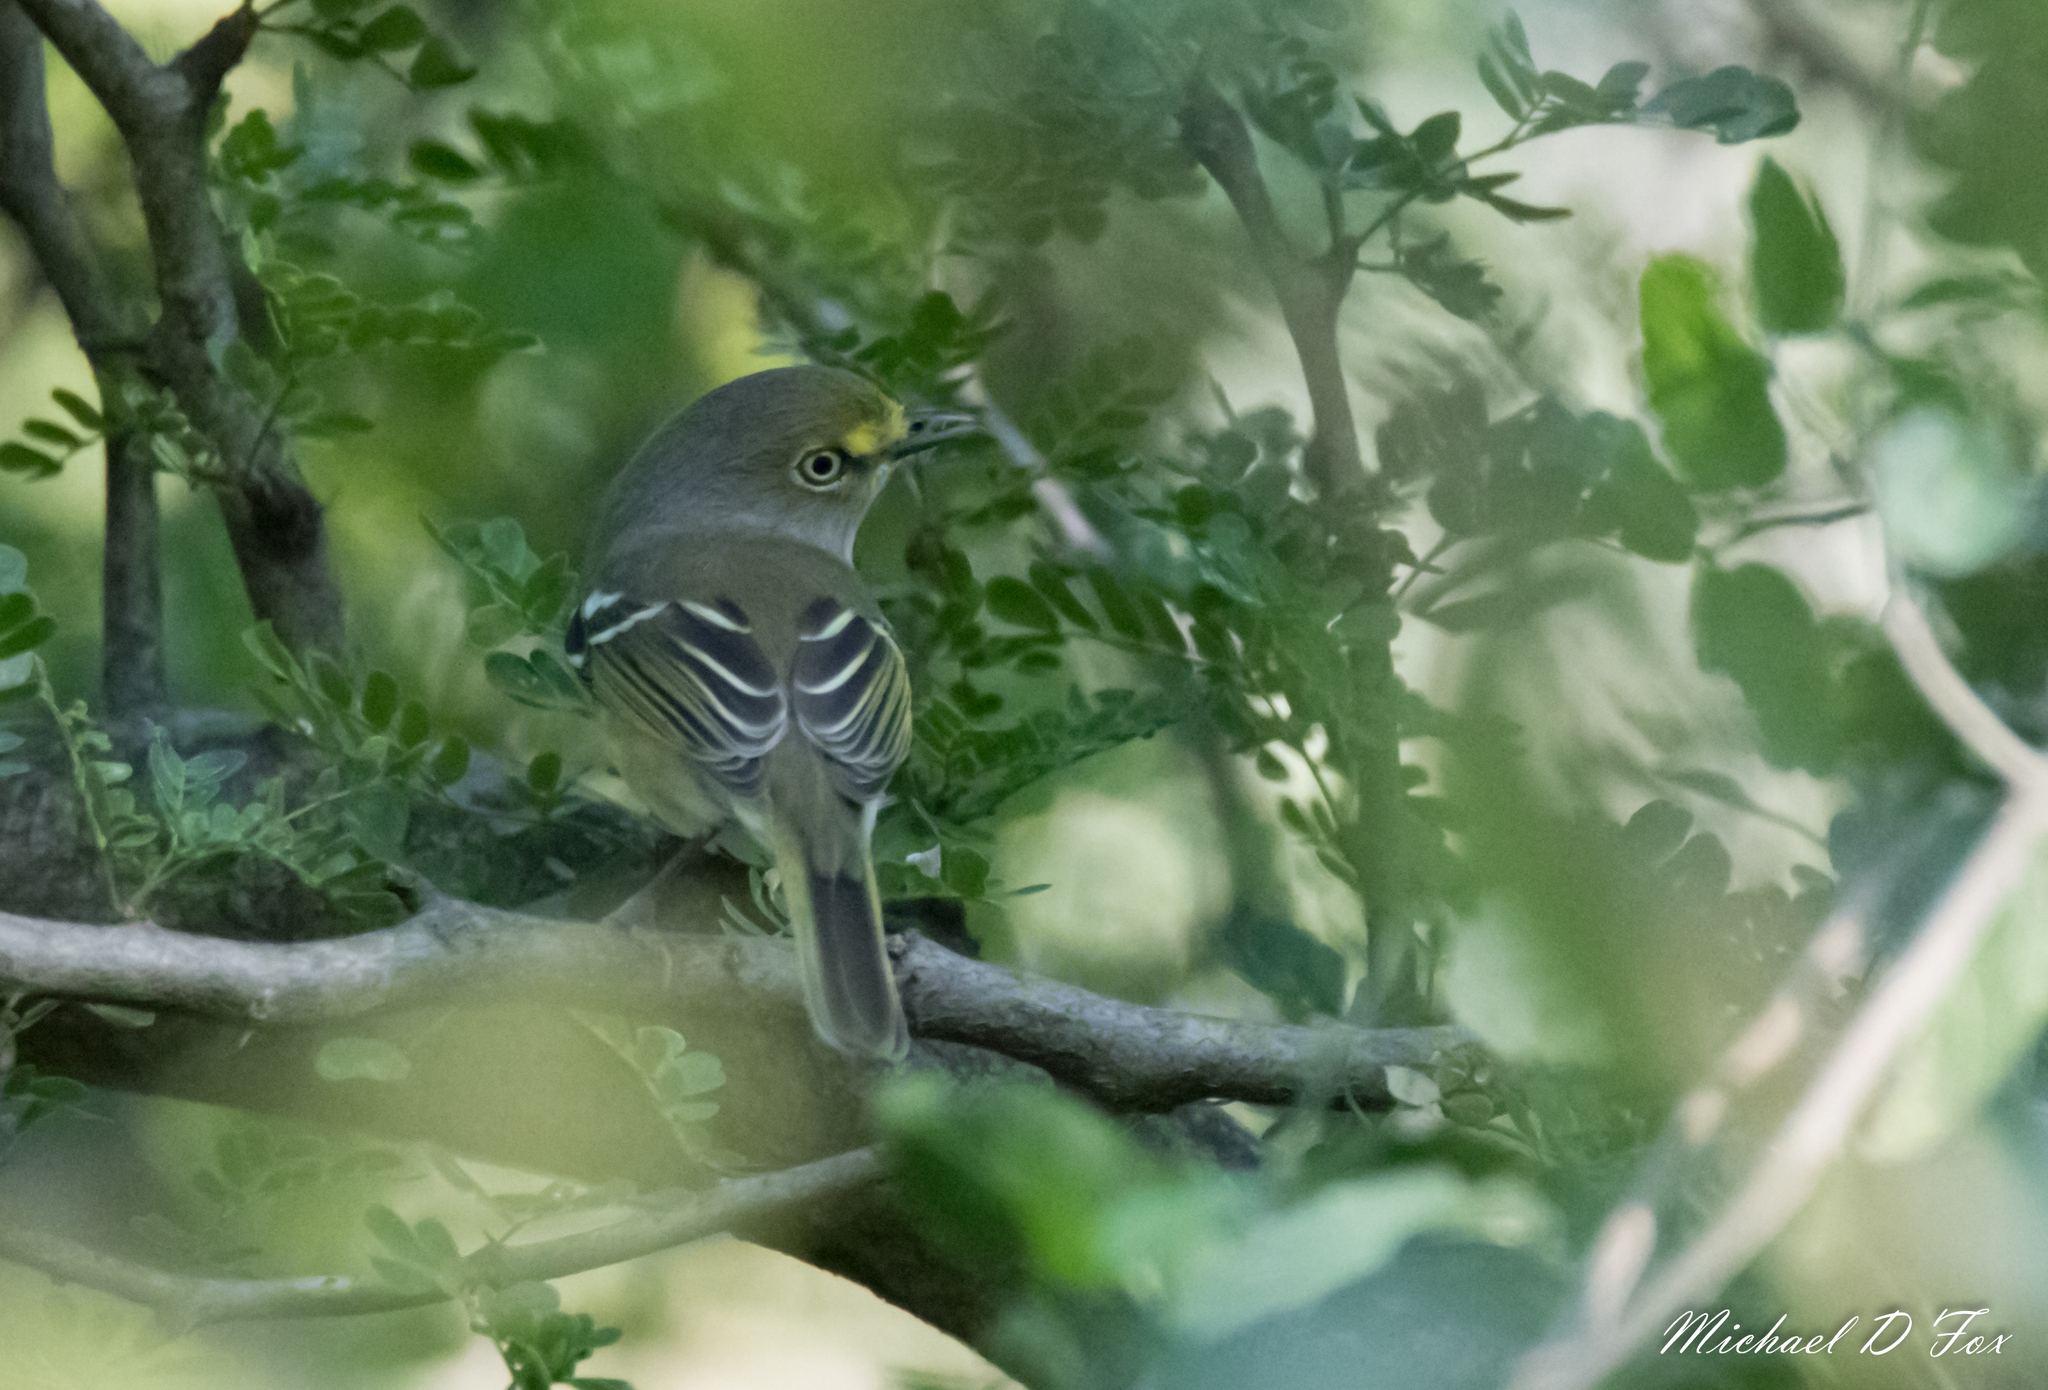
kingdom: Animalia
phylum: Chordata
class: Aves
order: Passeriformes
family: Vireonidae
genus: Vireo
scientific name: Vireo griseus
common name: White-eyed vireo
